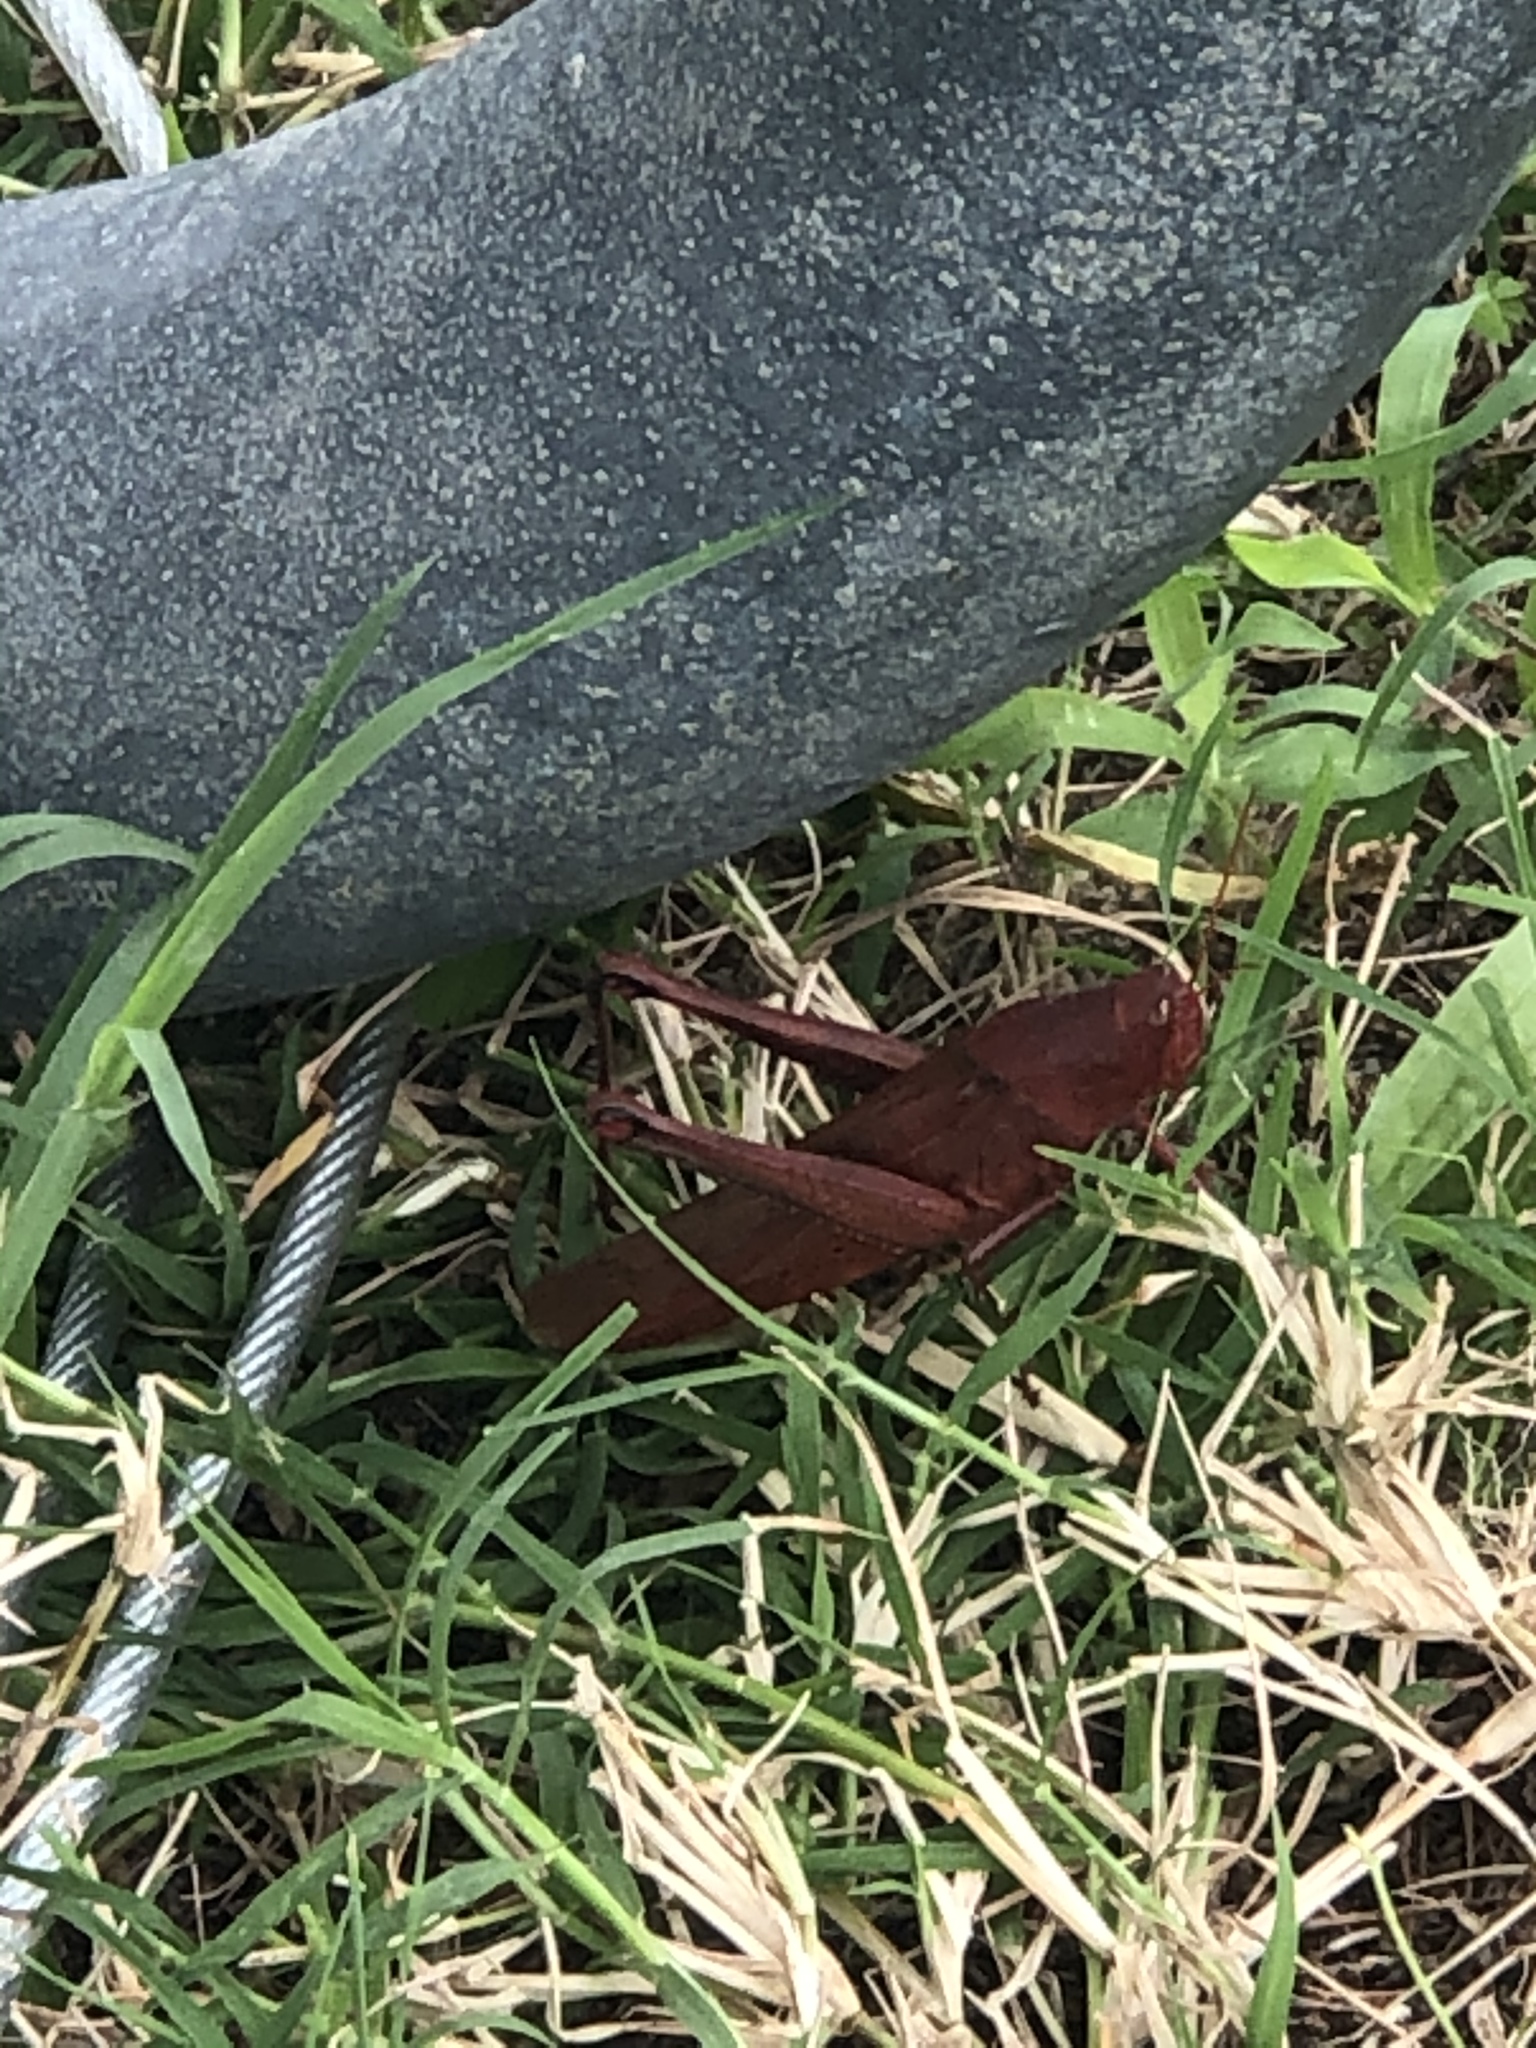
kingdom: Animalia
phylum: Arthropoda
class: Insecta
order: Orthoptera
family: Acrididae
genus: Schistocerca
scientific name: Schistocerca lineata
